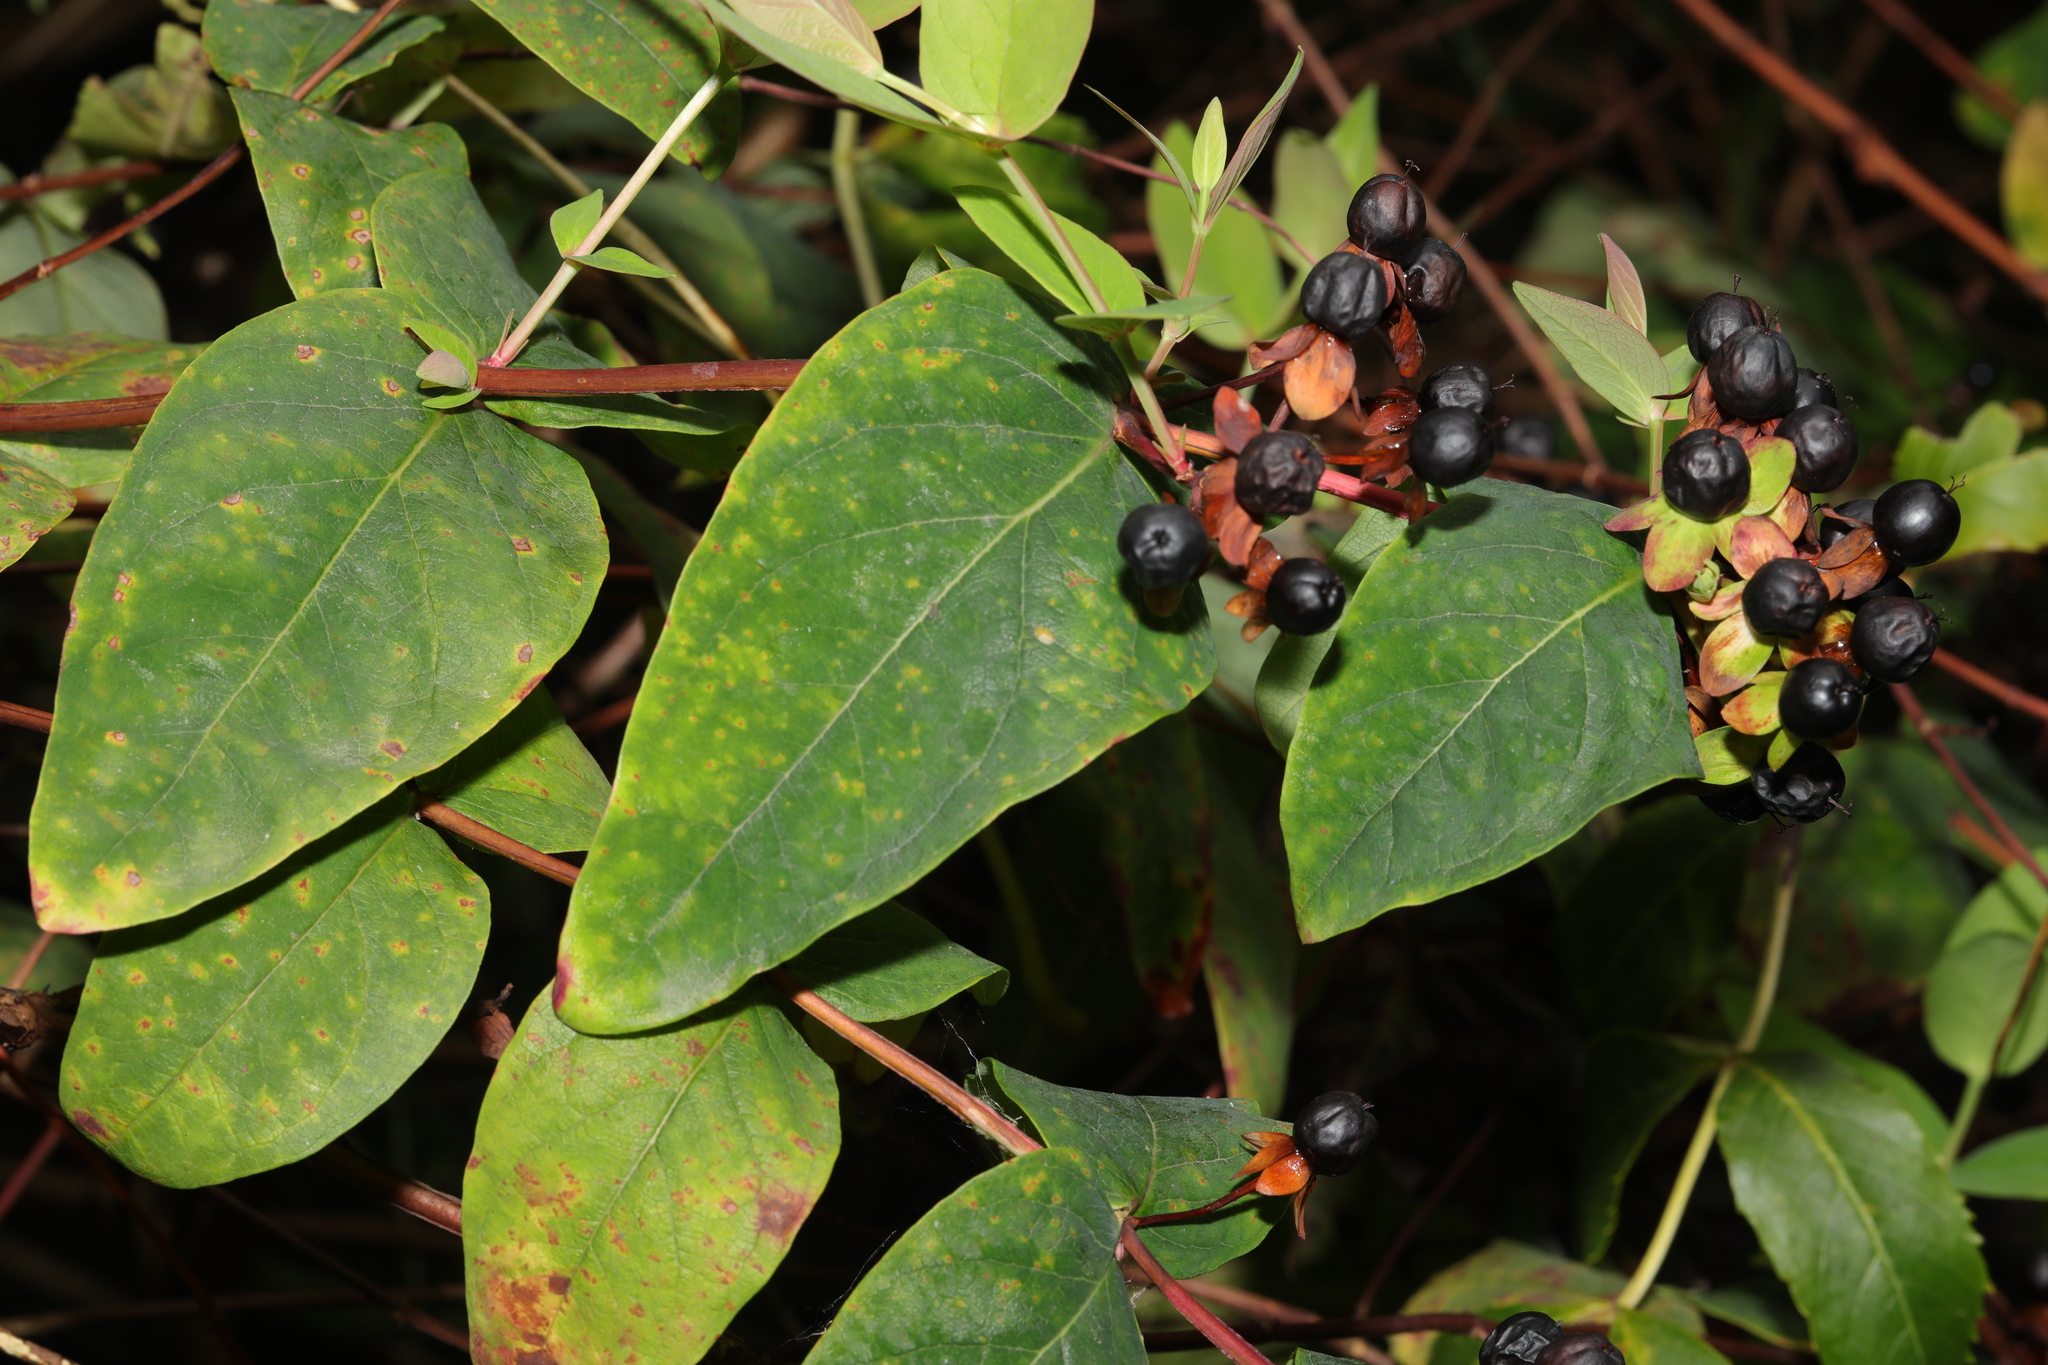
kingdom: Plantae
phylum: Tracheophyta
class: Magnoliopsida
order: Malpighiales
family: Hypericaceae
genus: Hypericum
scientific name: Hypericum androsaemum
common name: Sweet-amber
